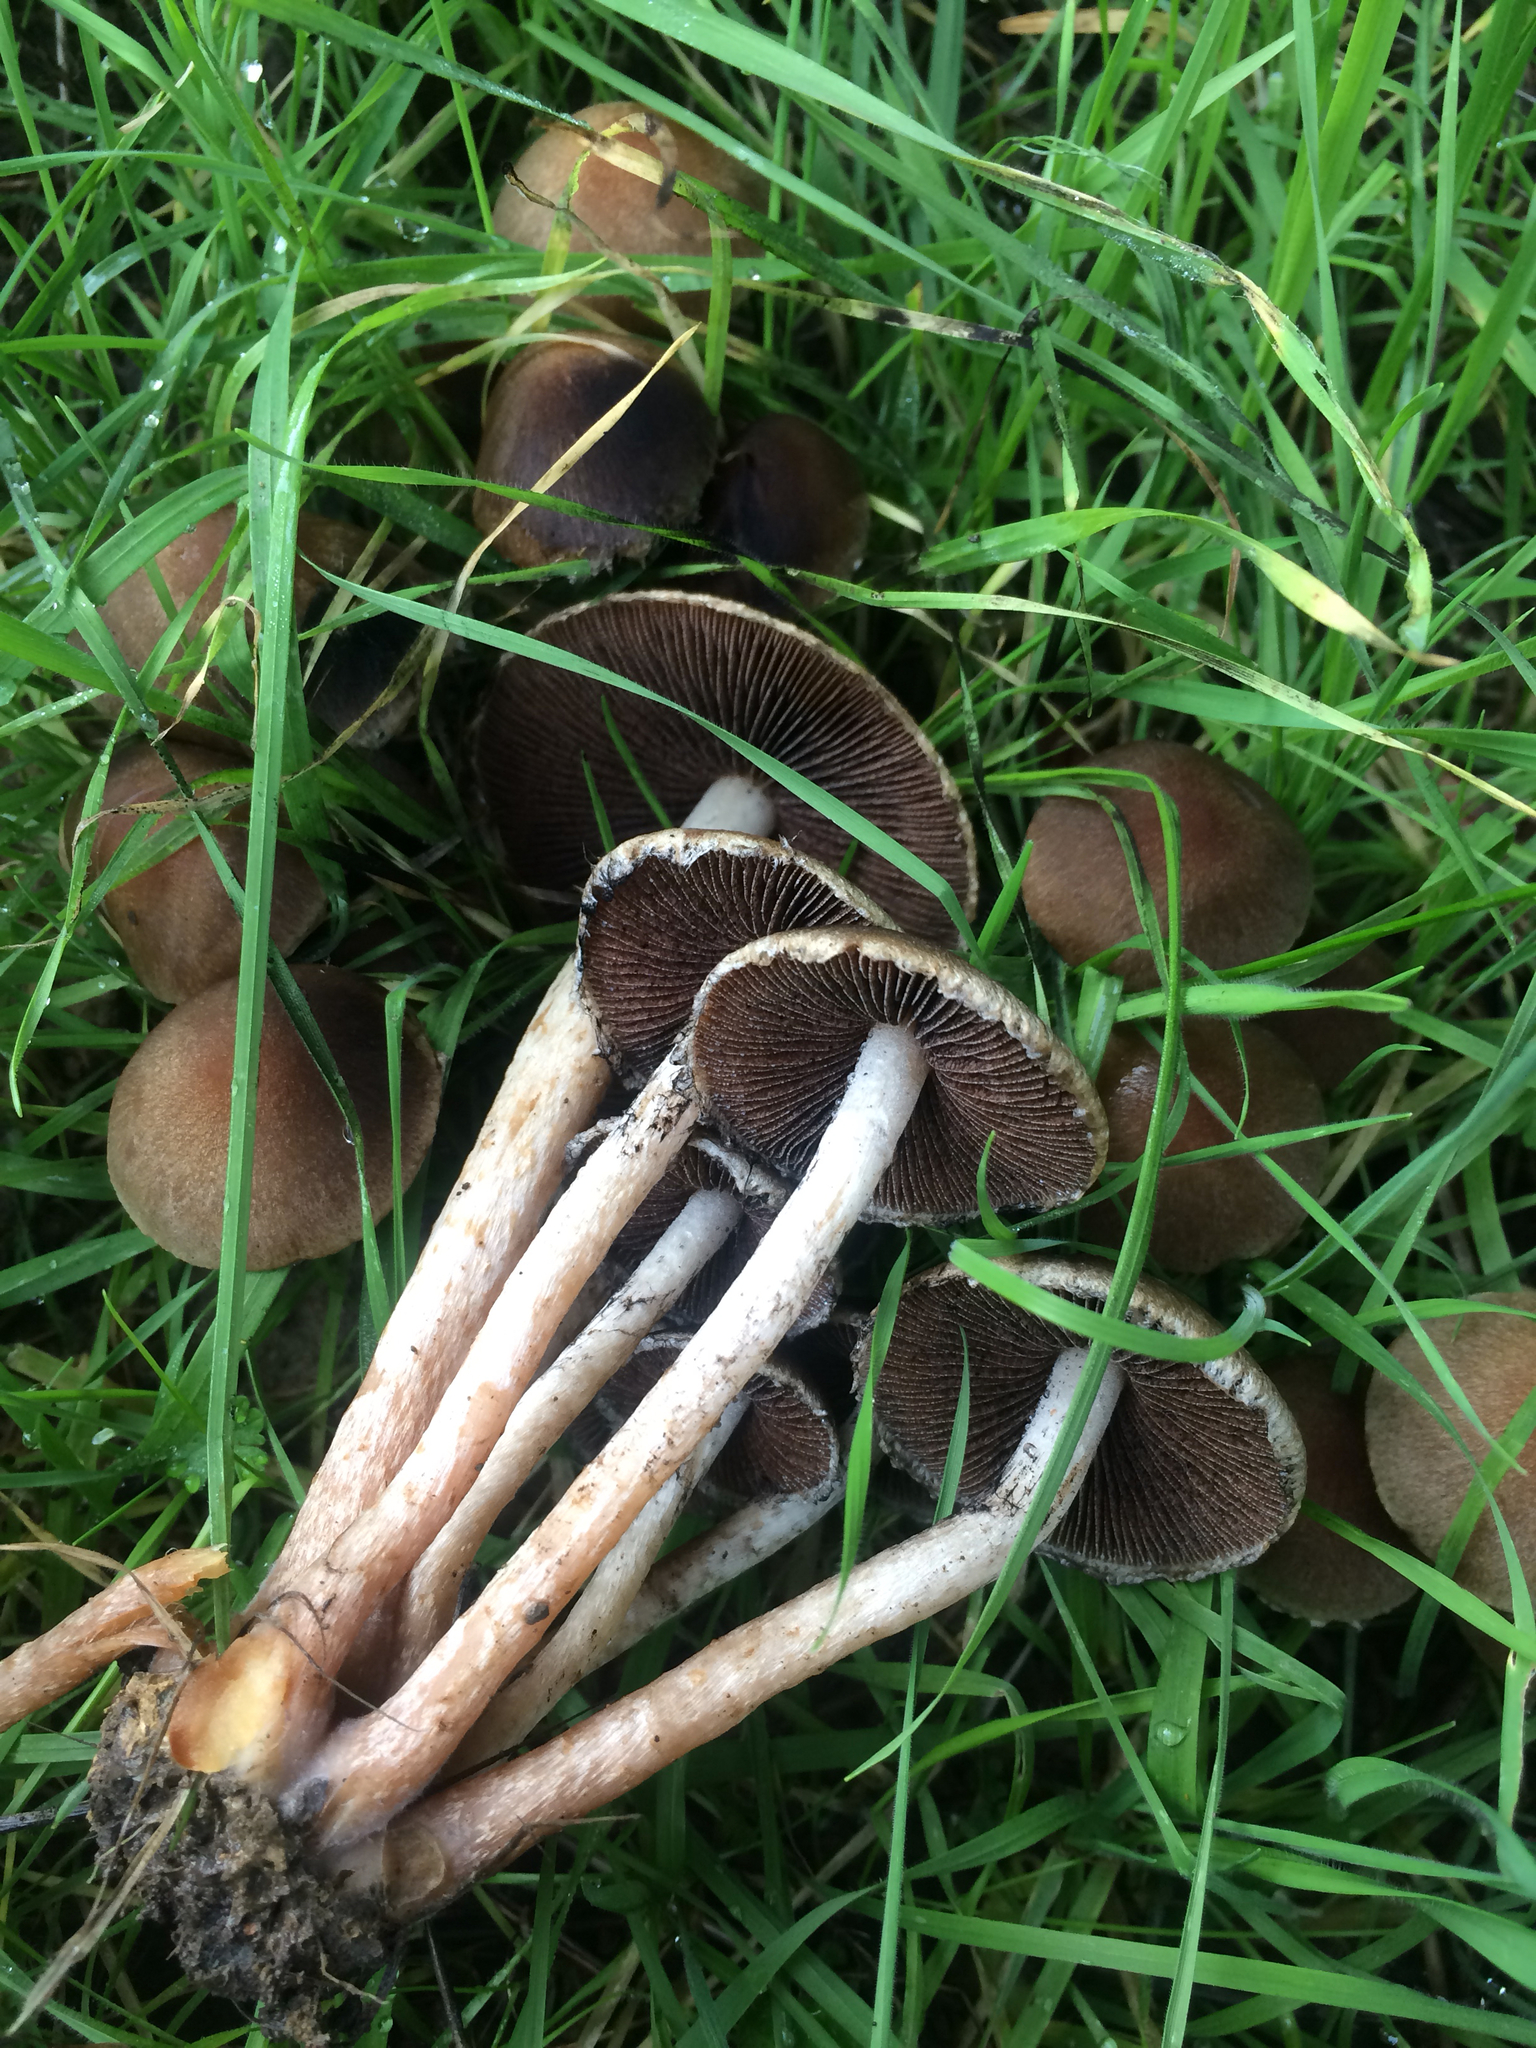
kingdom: Fungi
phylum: Basidiomycota
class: Agaricomycetes
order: Agaricales
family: Psathyrellaceae
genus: Lacrymaria
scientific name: Lacrymaria lacrymabunda
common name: Weeping widow
